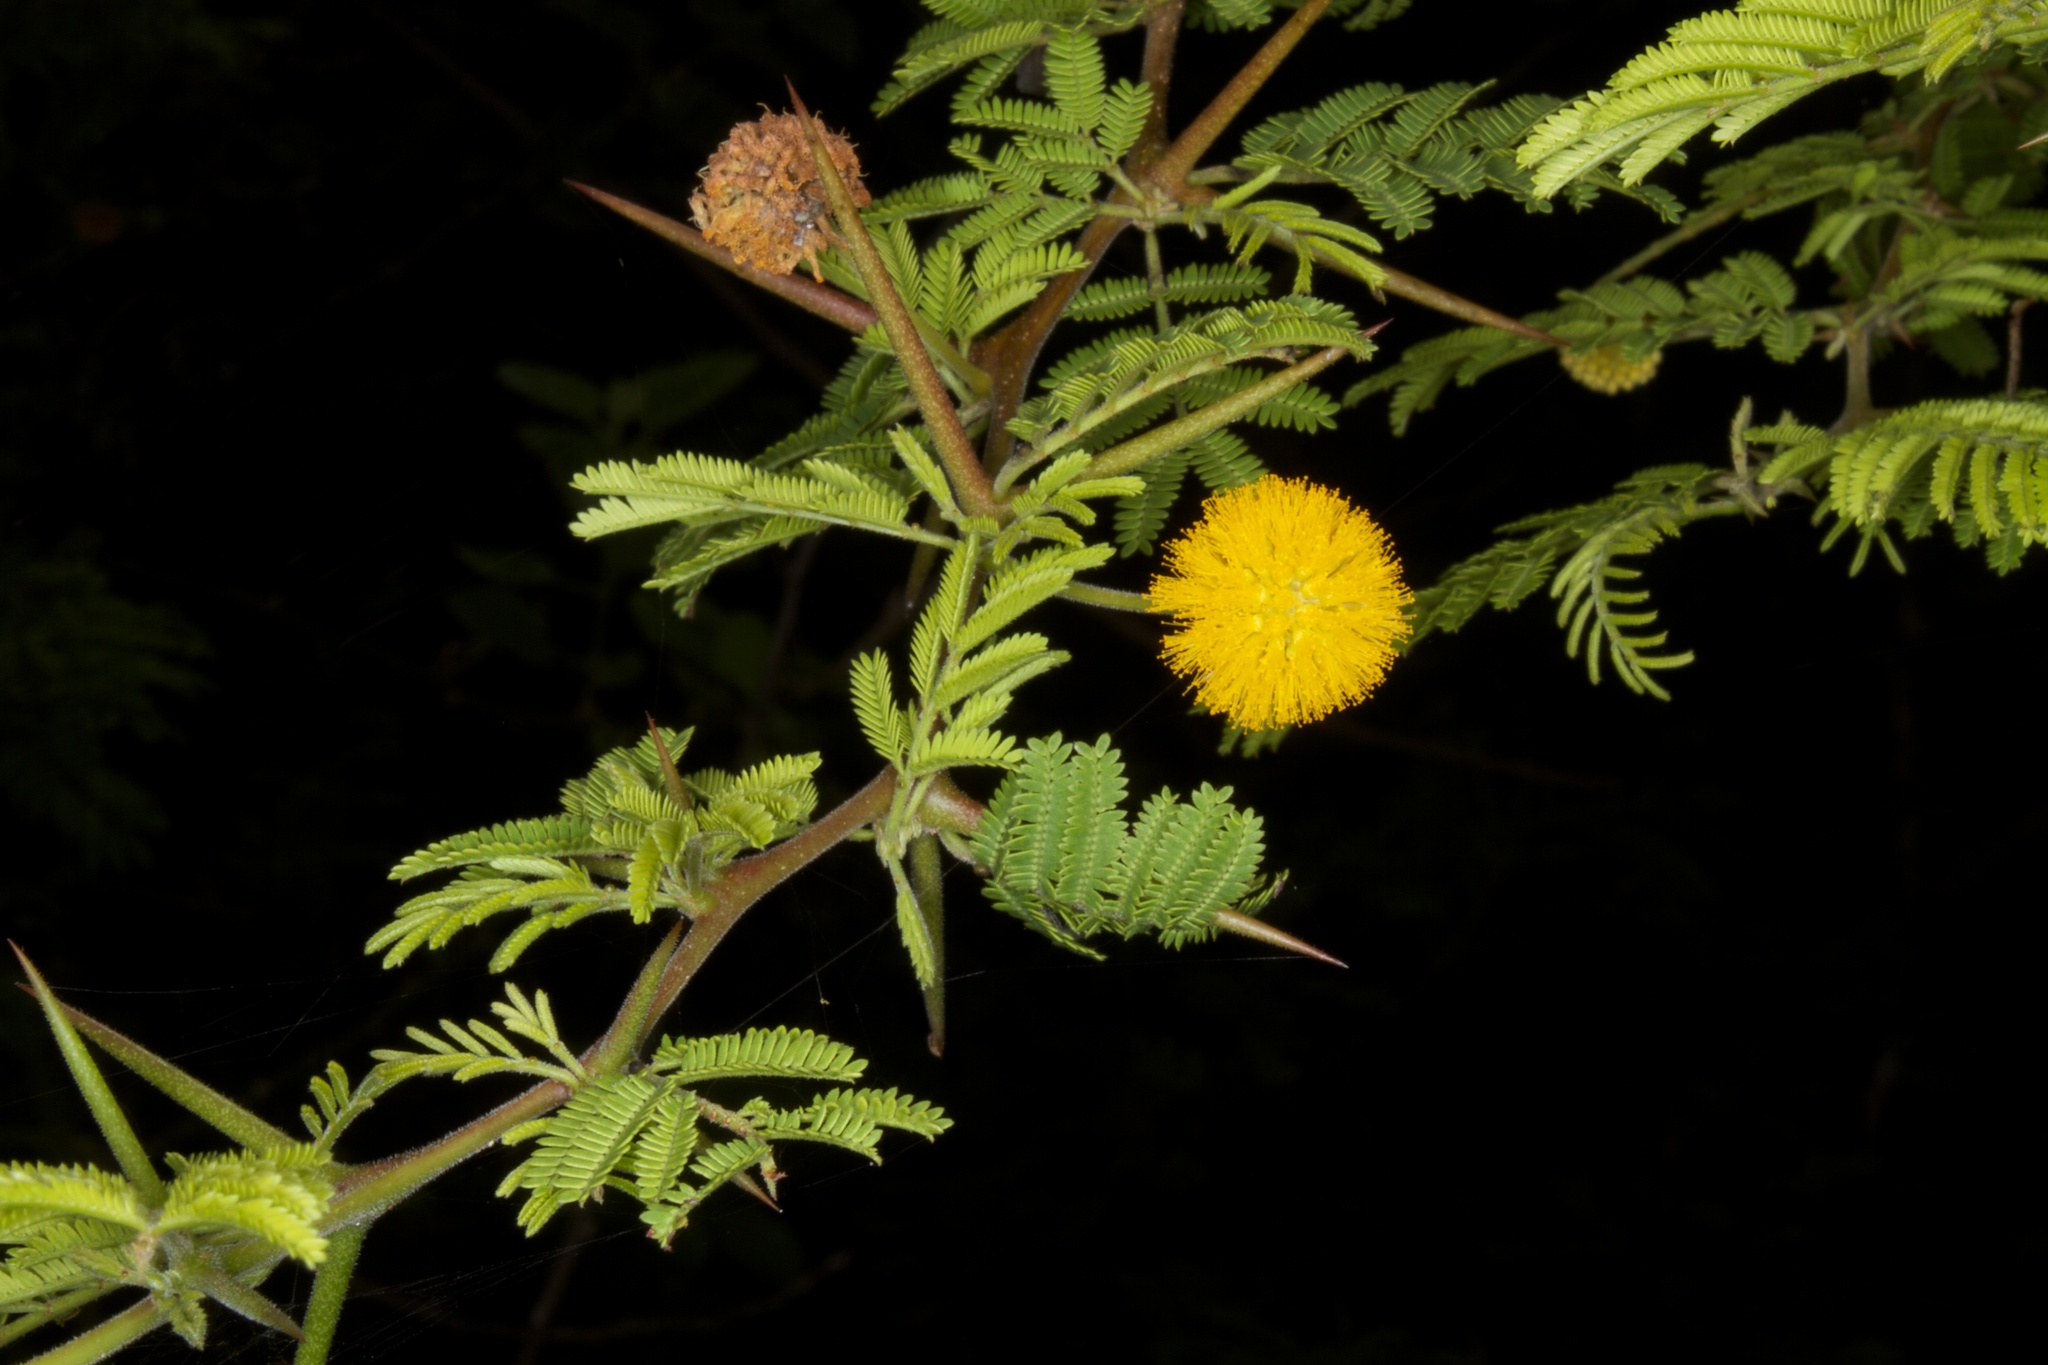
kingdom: Plantae
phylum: Tracheophyta
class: Magnoliopsida
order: Fabales
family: Fabaceae
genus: Vachellia
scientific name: Vachellia rorudiana
